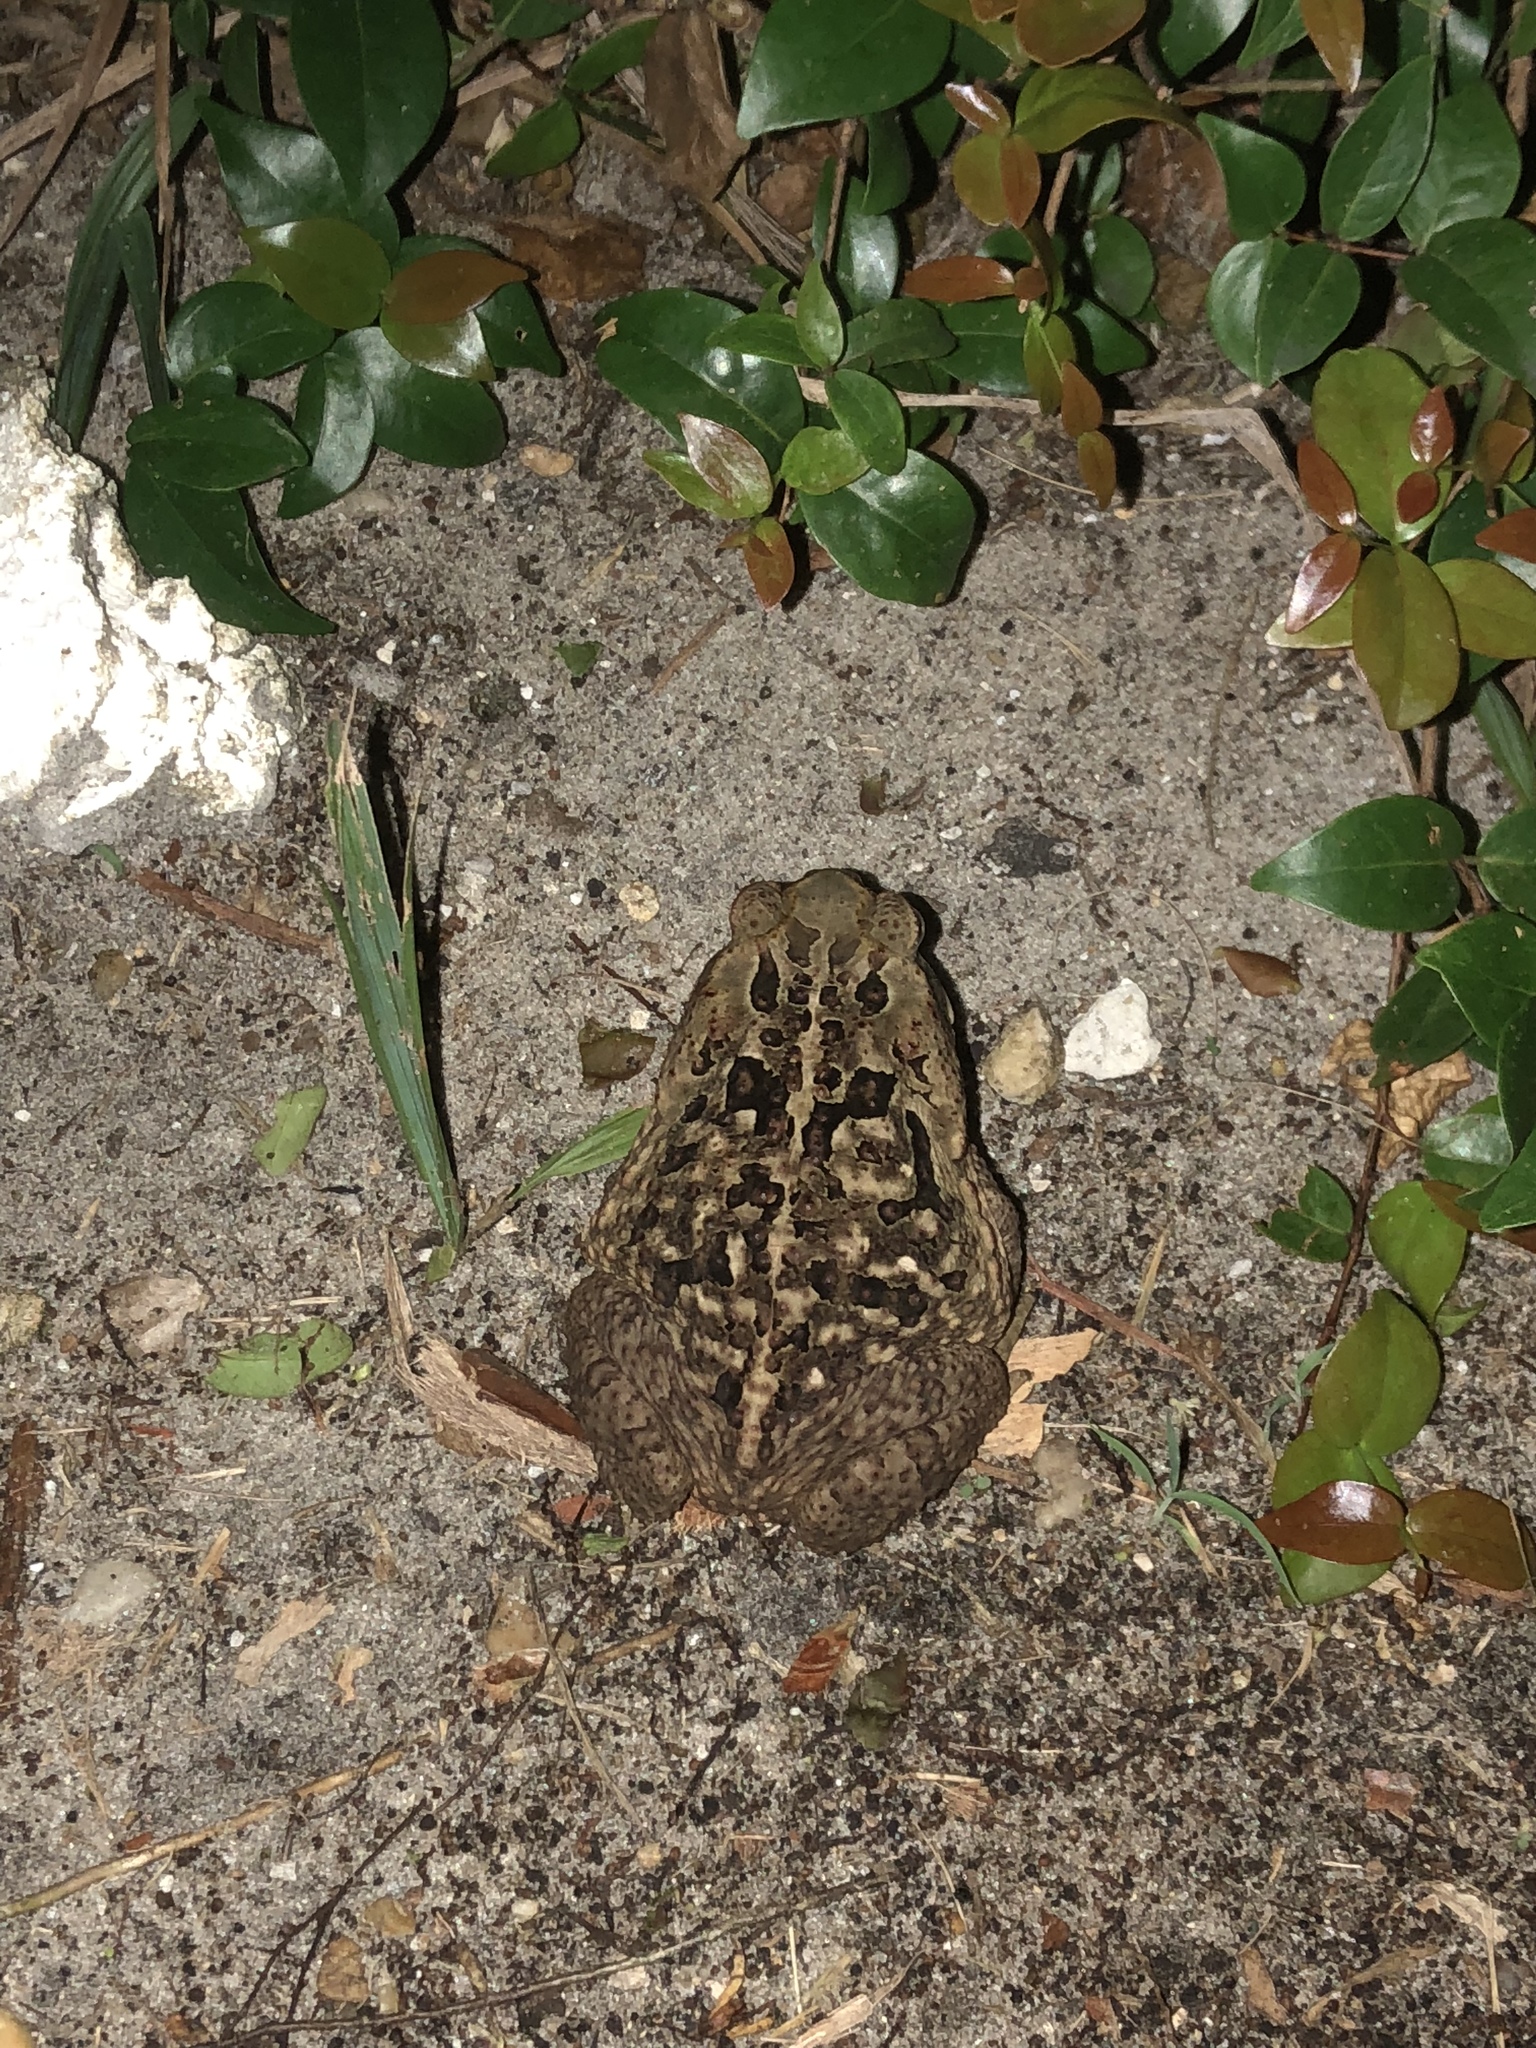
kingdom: Animalia
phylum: Chordata
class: Amphibia
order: Anura
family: Bufonidae
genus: Rhinella
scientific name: Rhinella marina
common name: Cane toad
